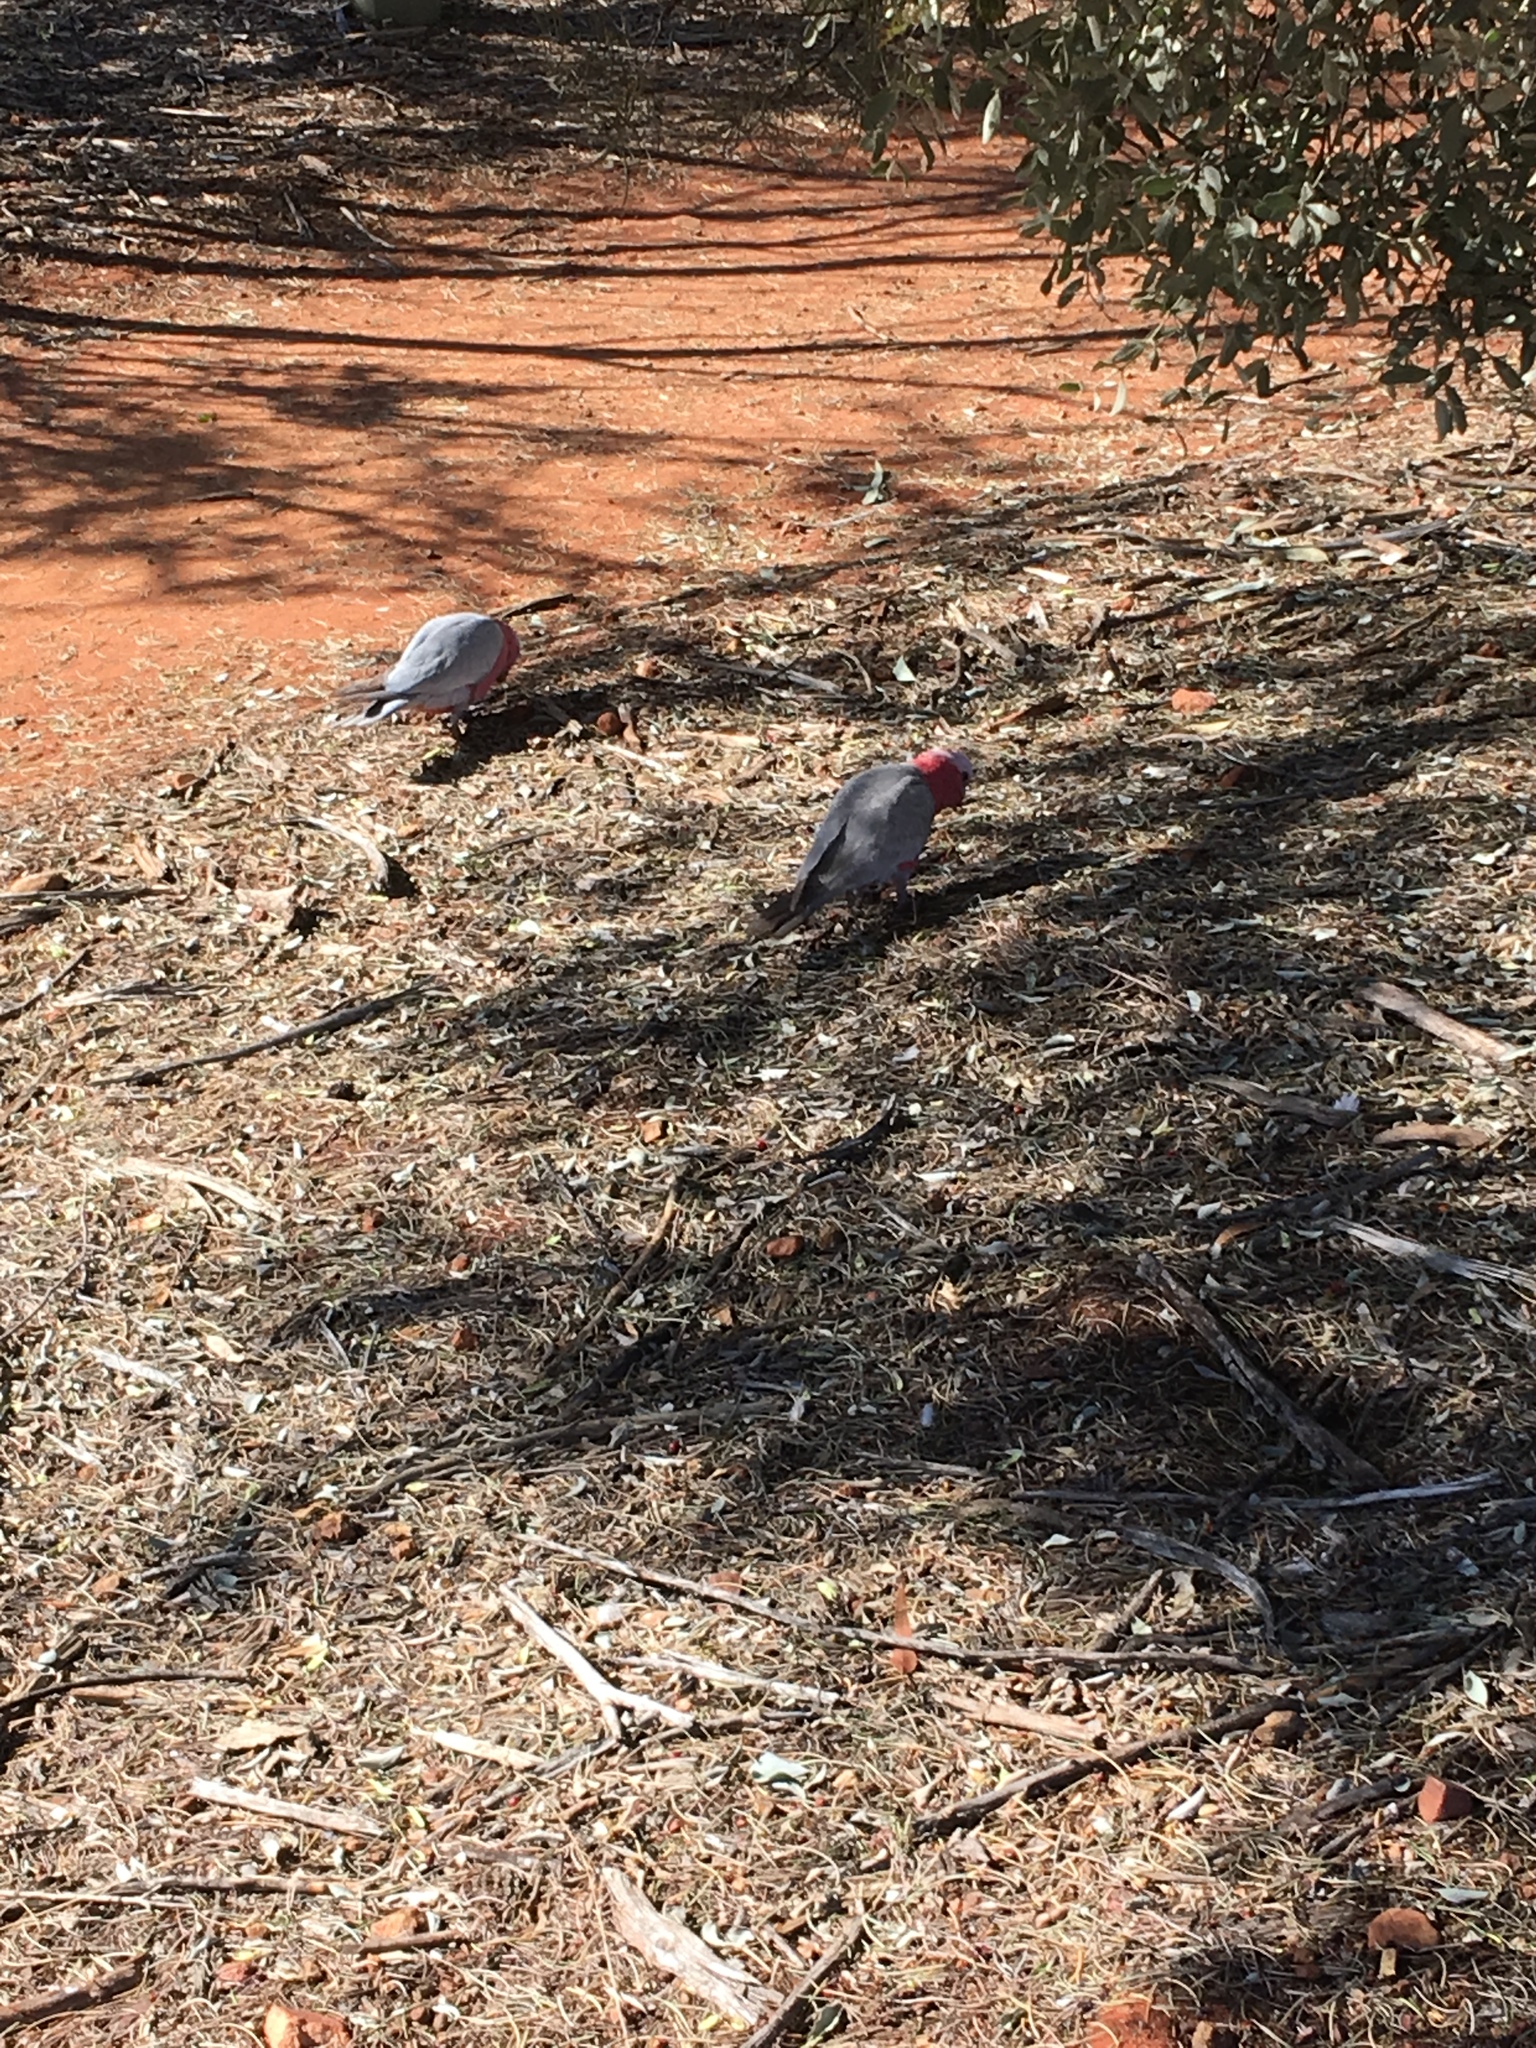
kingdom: Animalia
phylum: Chordata
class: Aves
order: Psittaciformes
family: Psittacidae
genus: Eolophus
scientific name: Eolophus roseicapilla
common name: Galah
